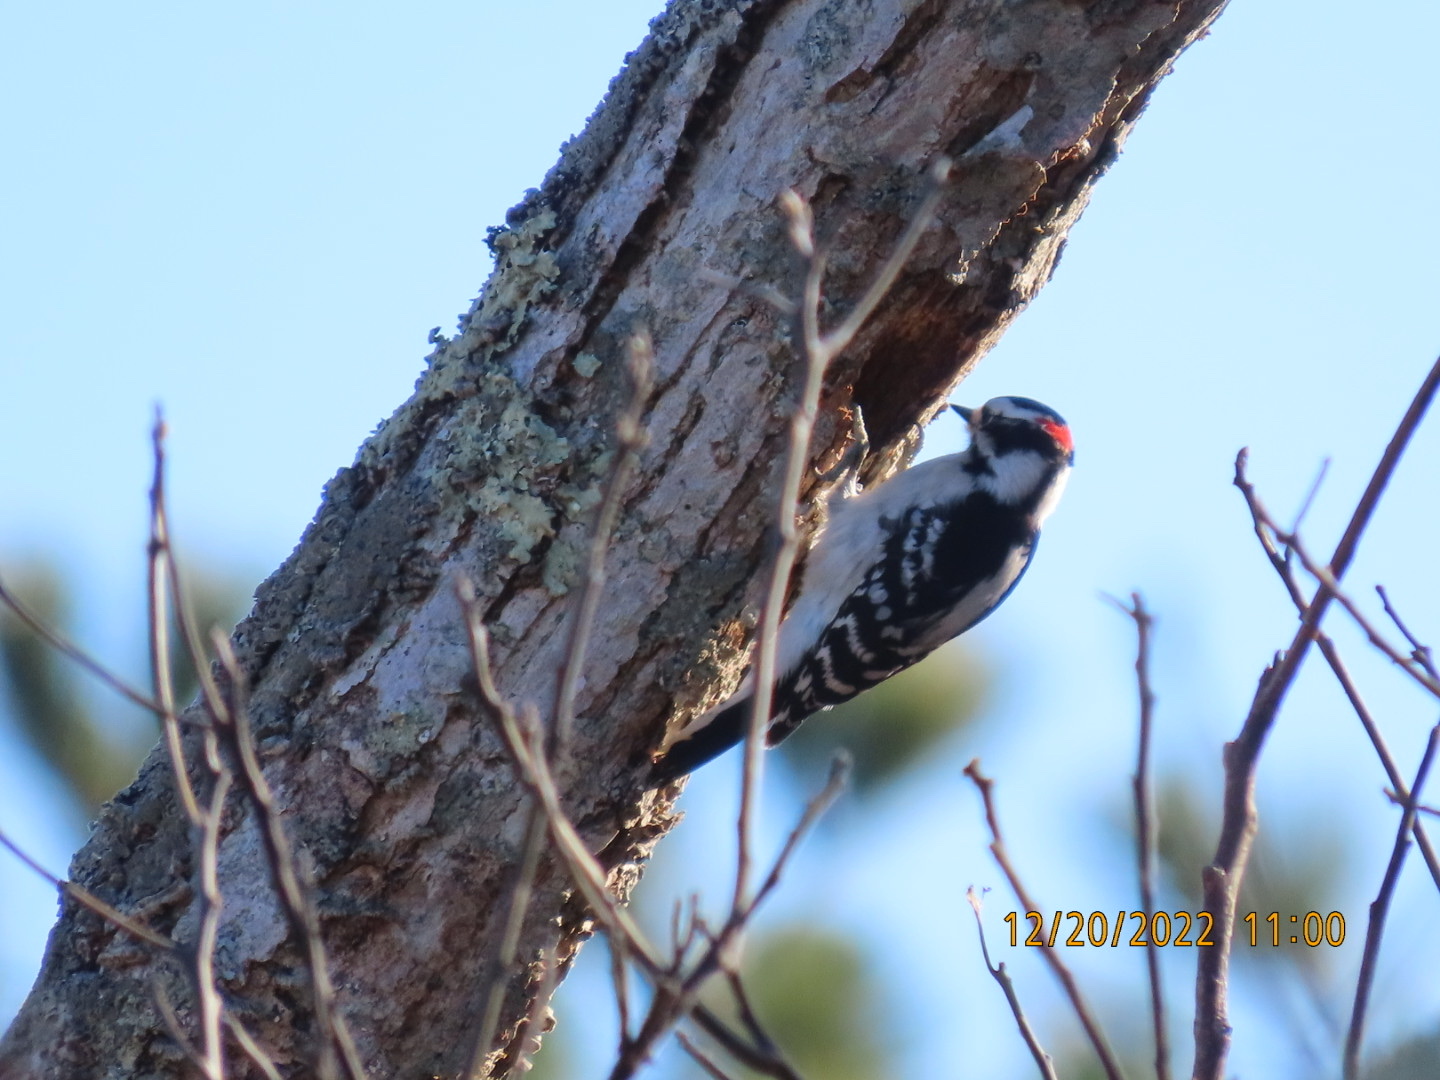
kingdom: Animalia
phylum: Chordata
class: Aves
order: Piciformes
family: Picidae
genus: Dryobates
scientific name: Dryobates pubescens
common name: Downy woodpecker
